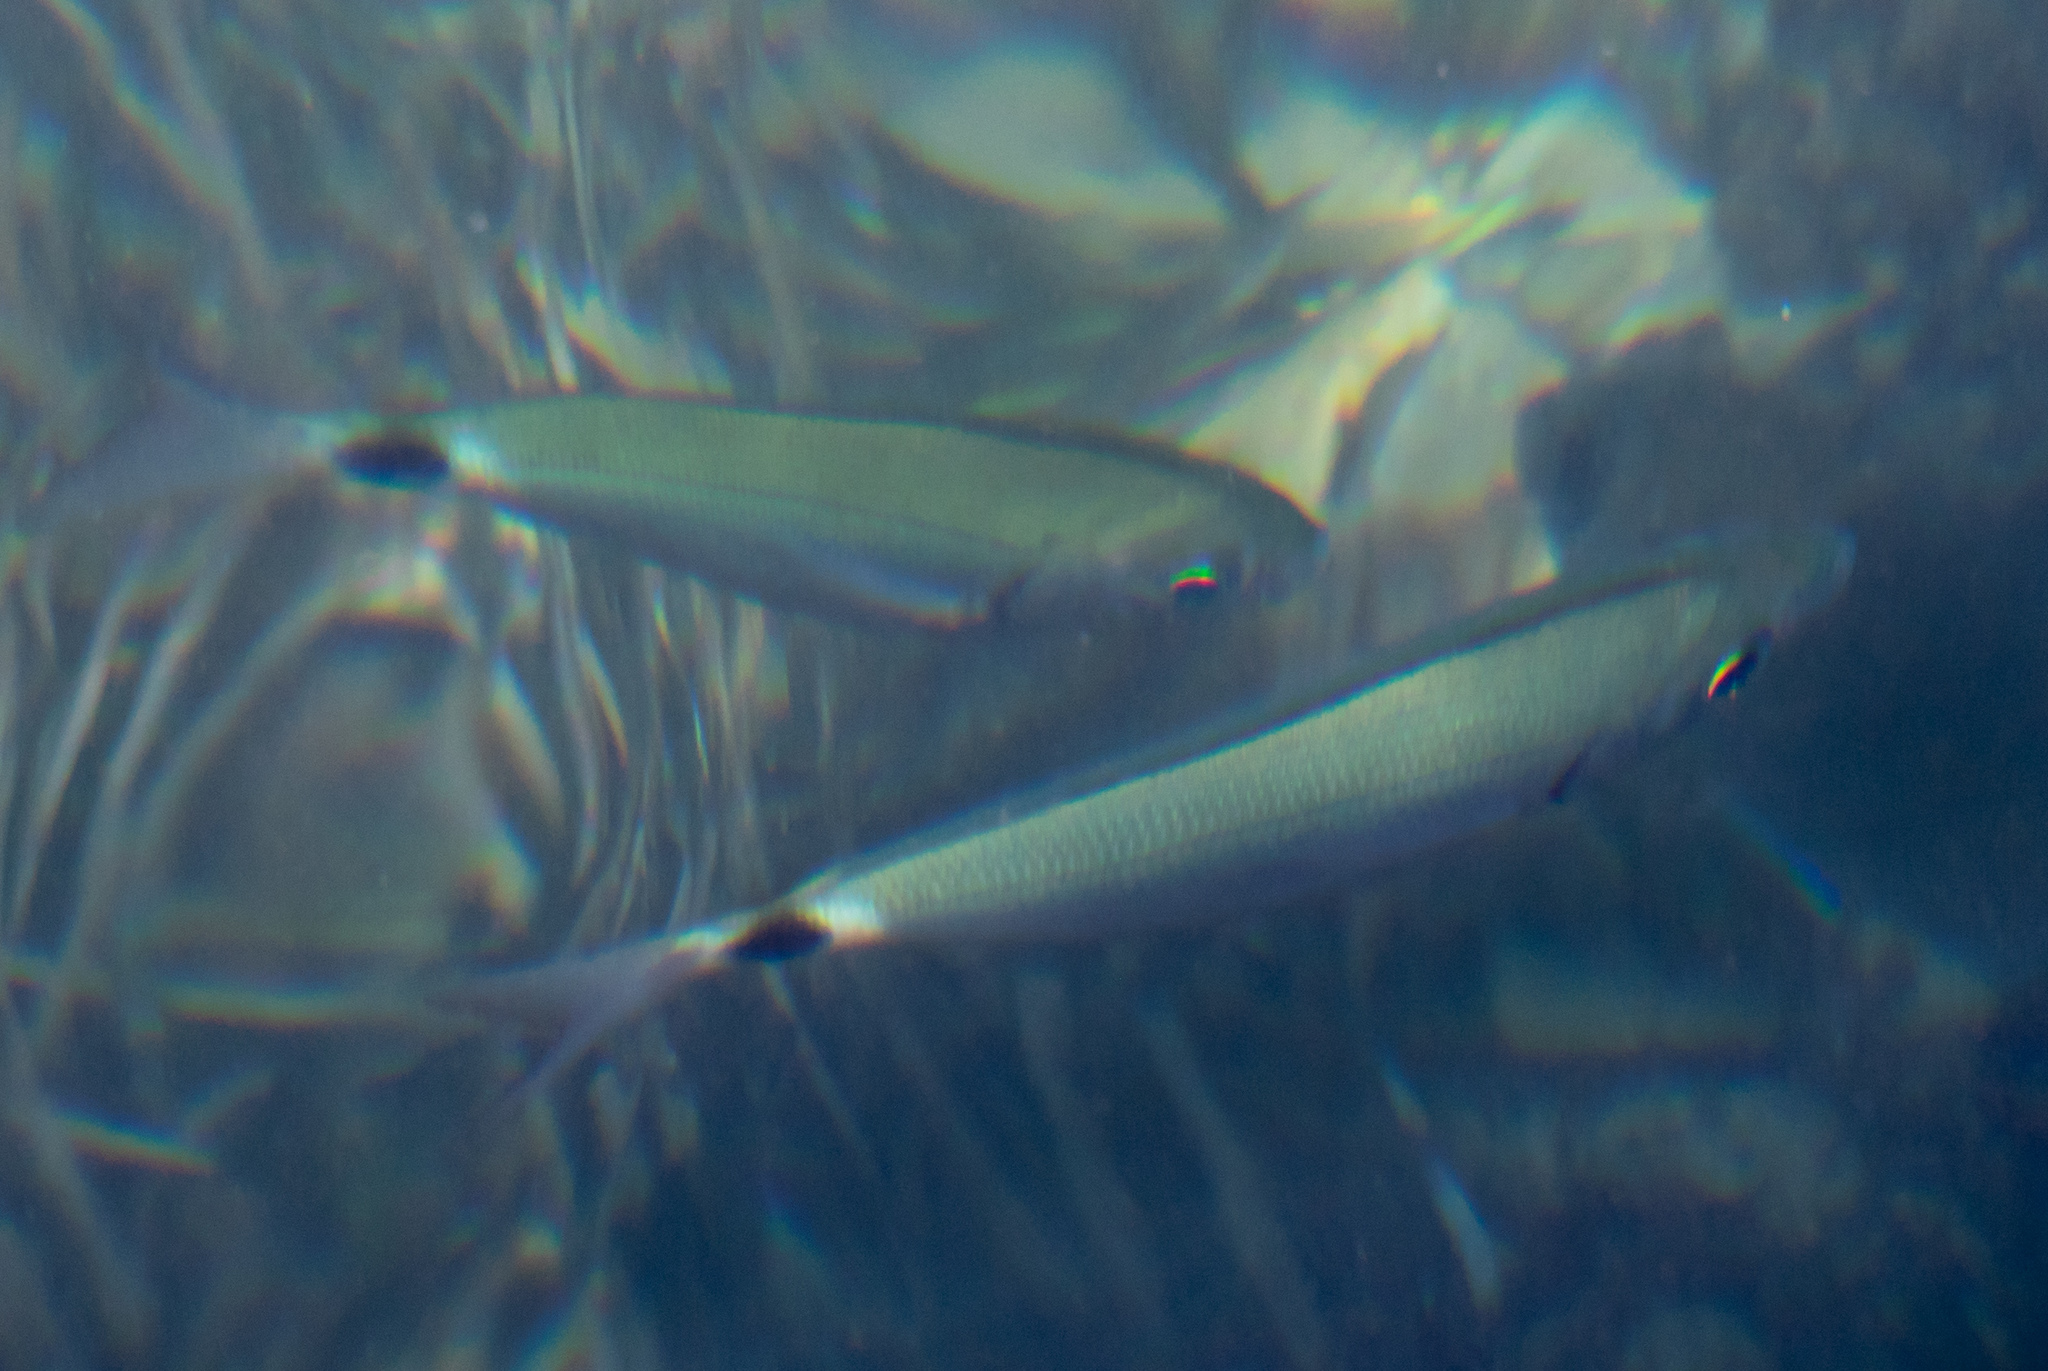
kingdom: Animalia
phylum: Chordata
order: Perciformes
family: Sparidae
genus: Oblada
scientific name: Oblada melanura
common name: Saddled seabream
